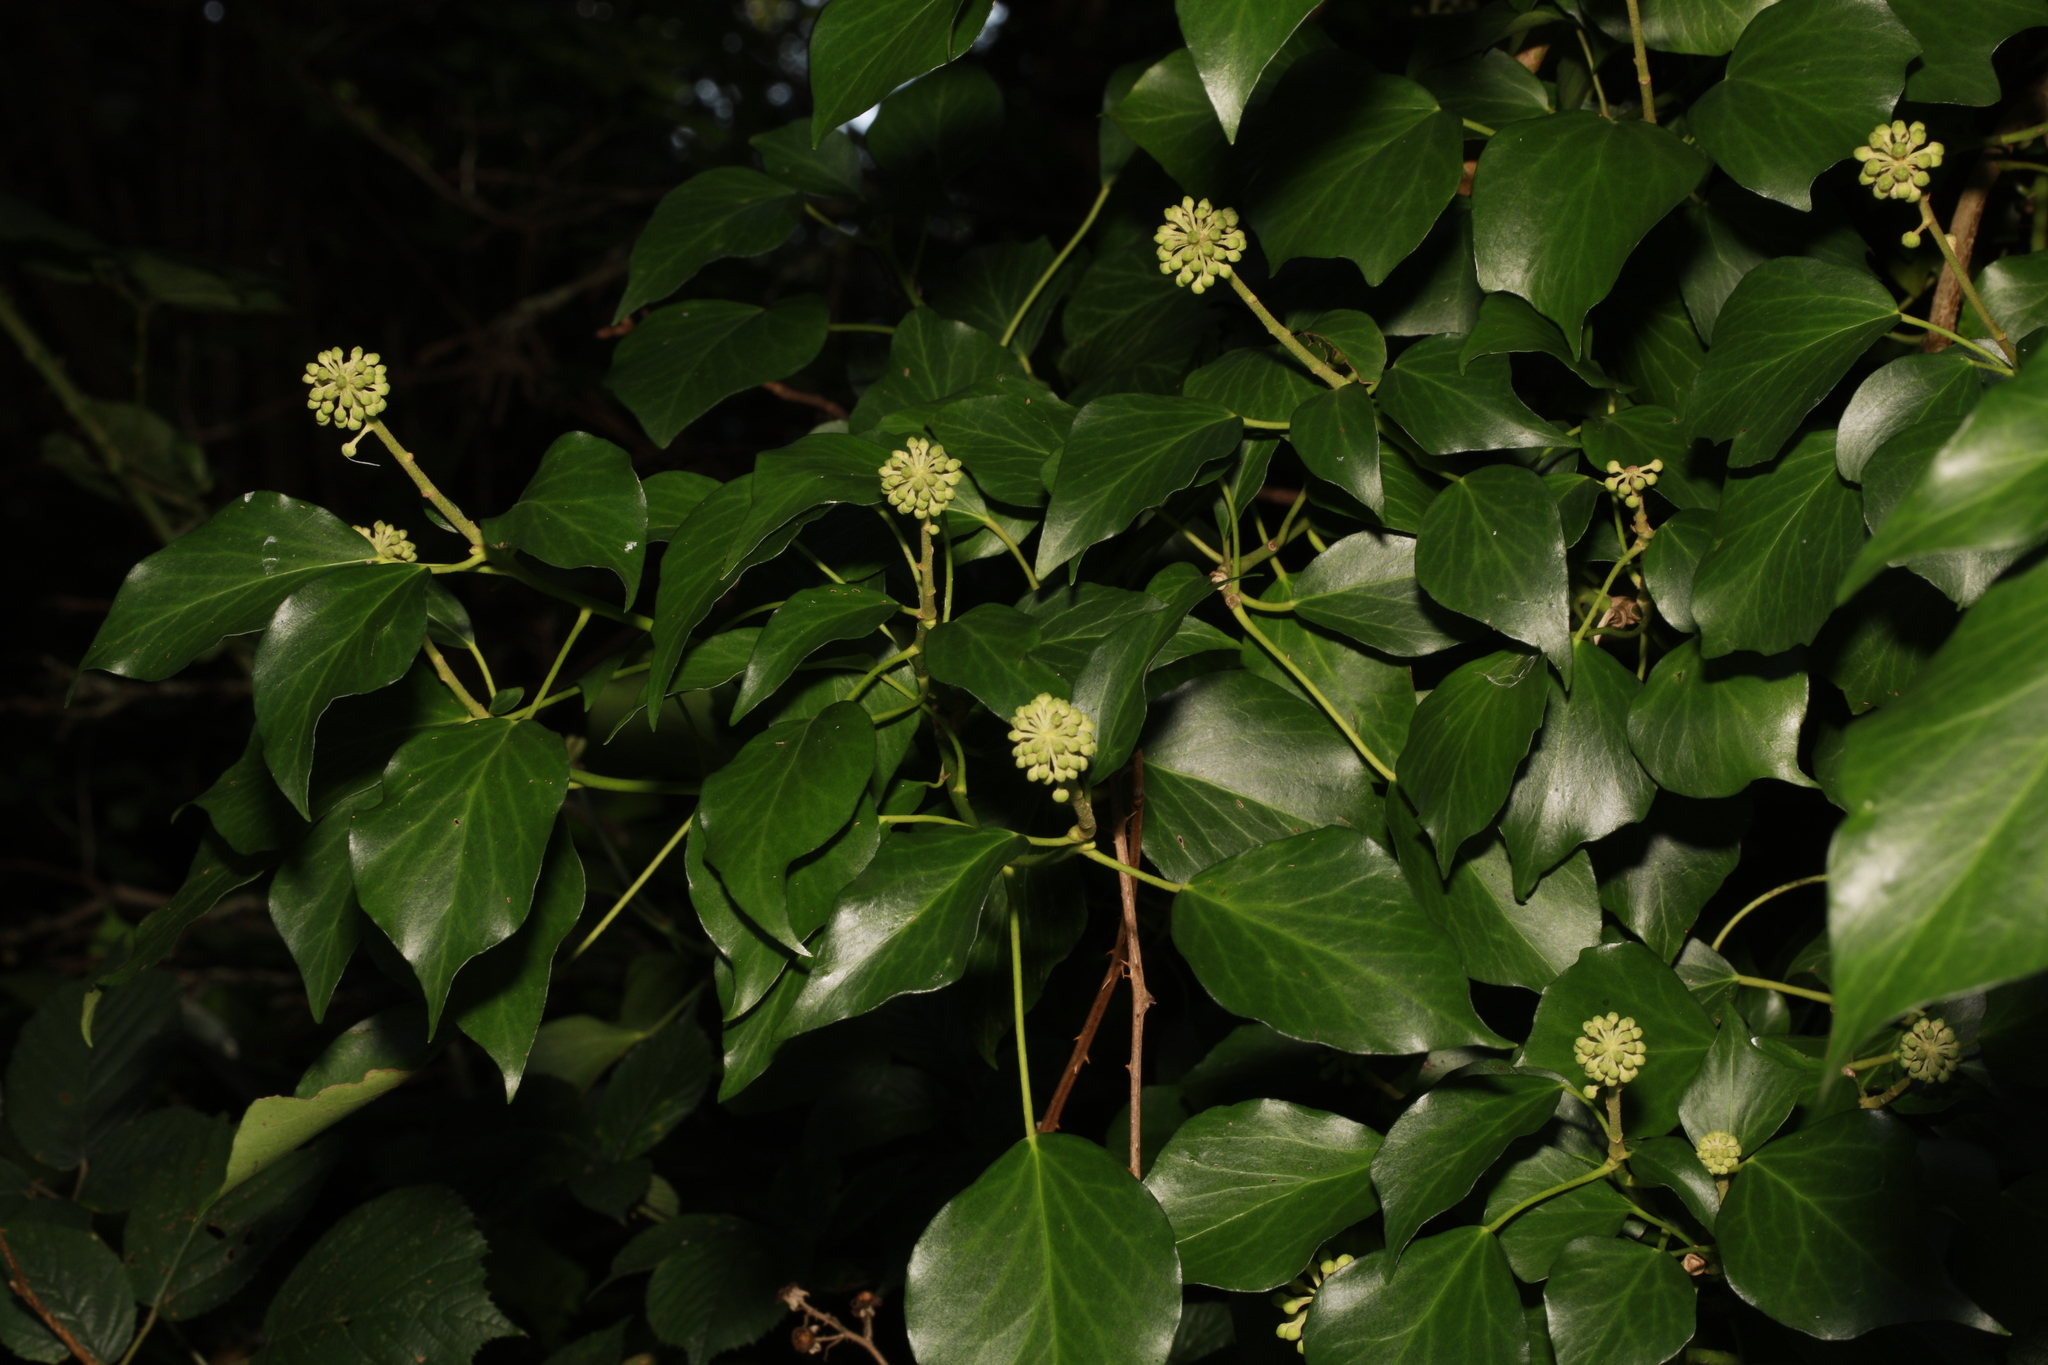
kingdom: Plantae
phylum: Tracheophyta
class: Magnoliopsida
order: Apiales
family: Araliaceae
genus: Hedera
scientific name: Hedera helix
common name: Ivy
